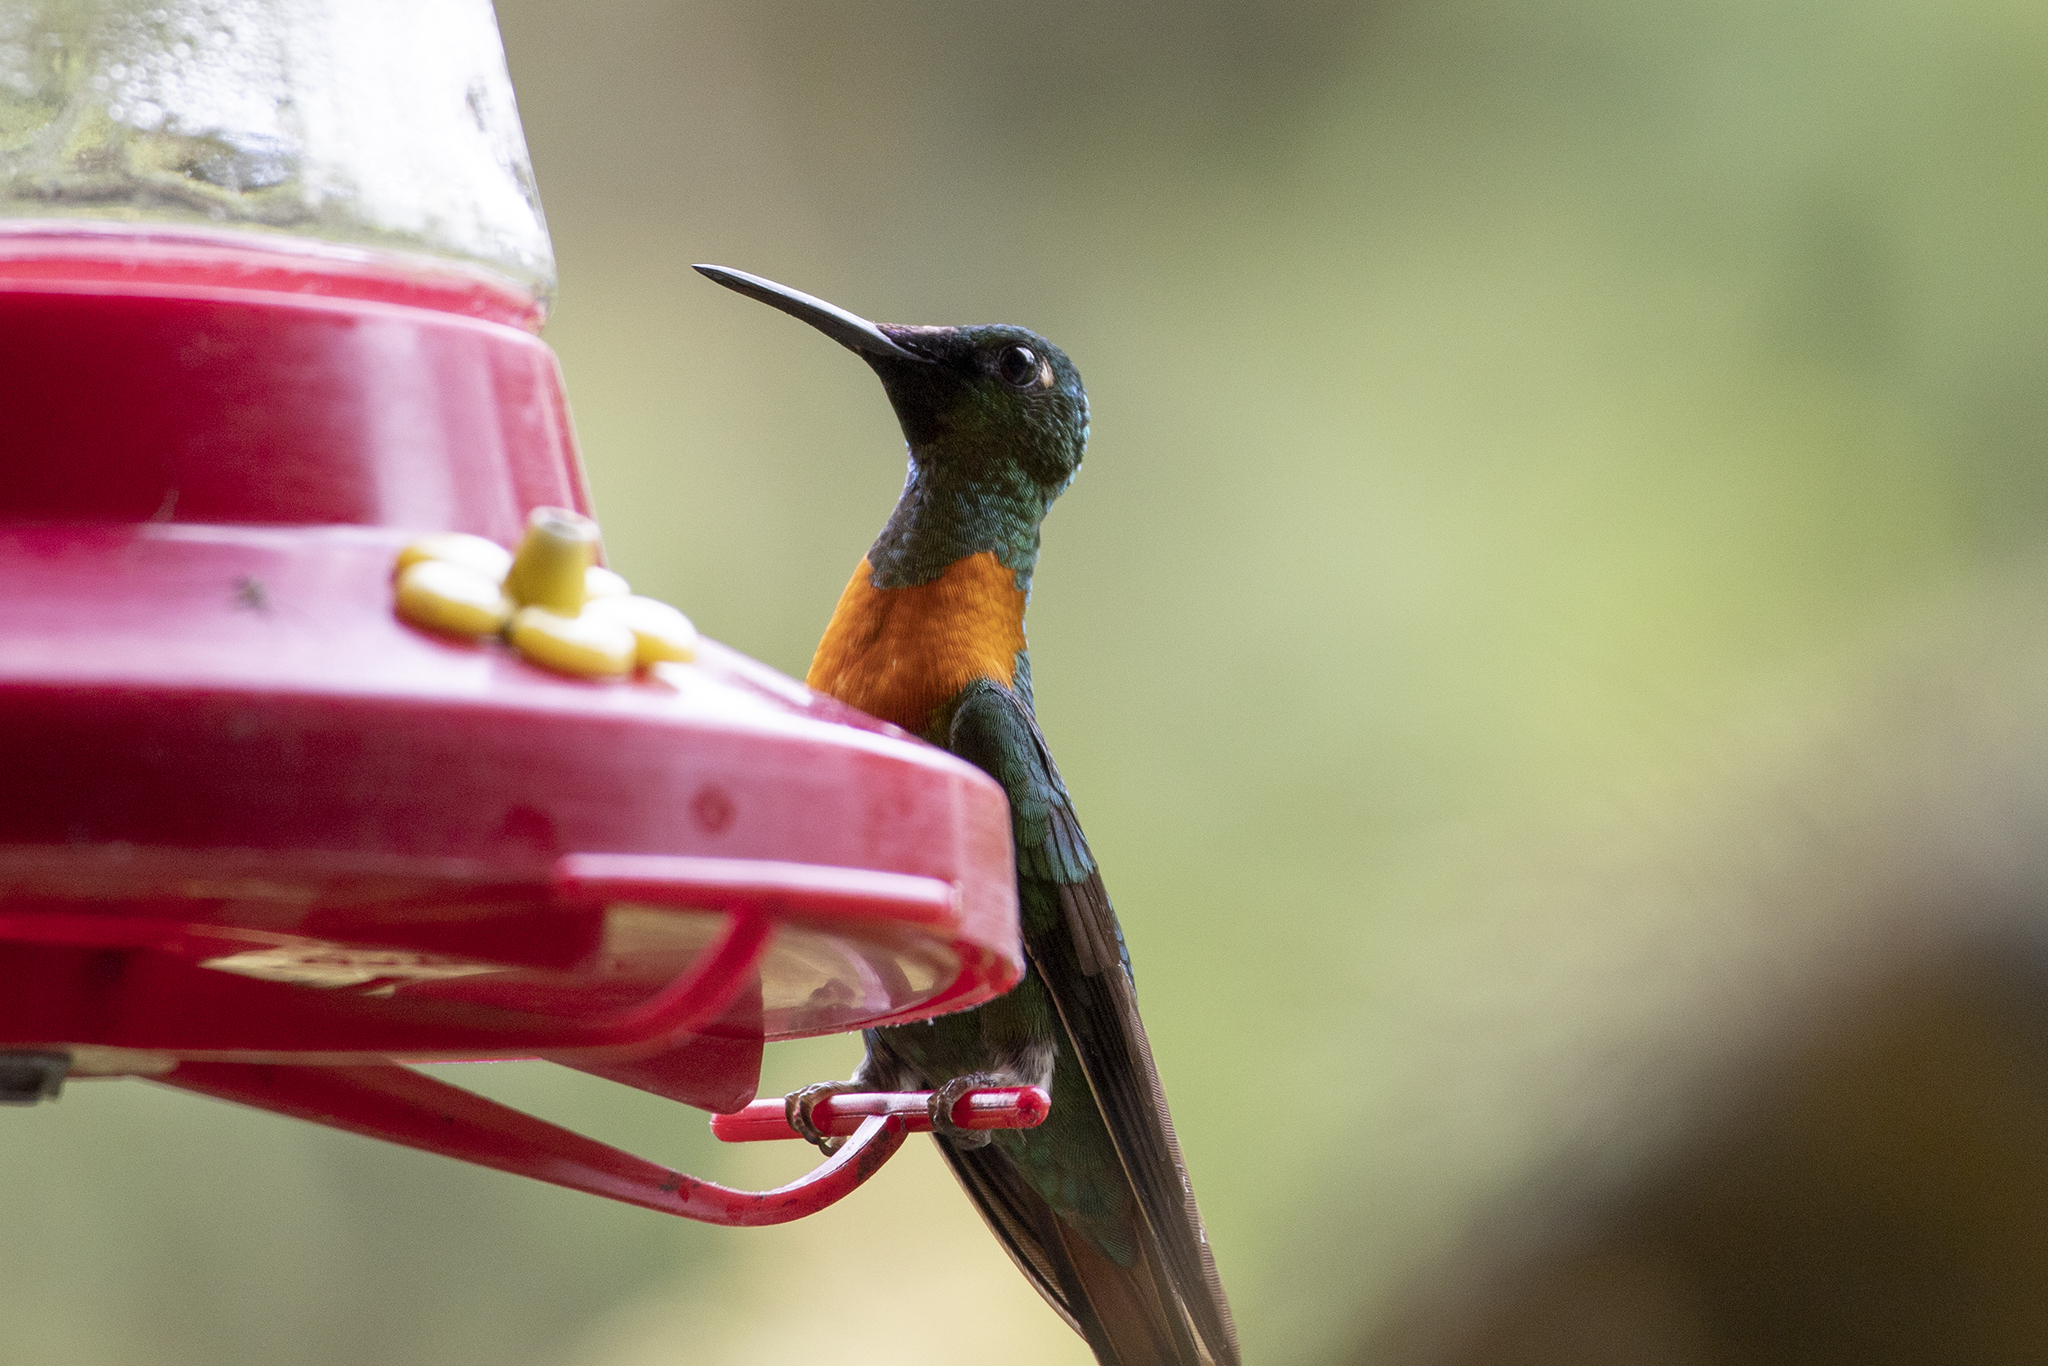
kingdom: Animalia
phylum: Chordata
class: Aves
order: Apodiformes
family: Trochilidae
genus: Heliodoxa
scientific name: Heliodoxa aurescens
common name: Gould's jewelfront
